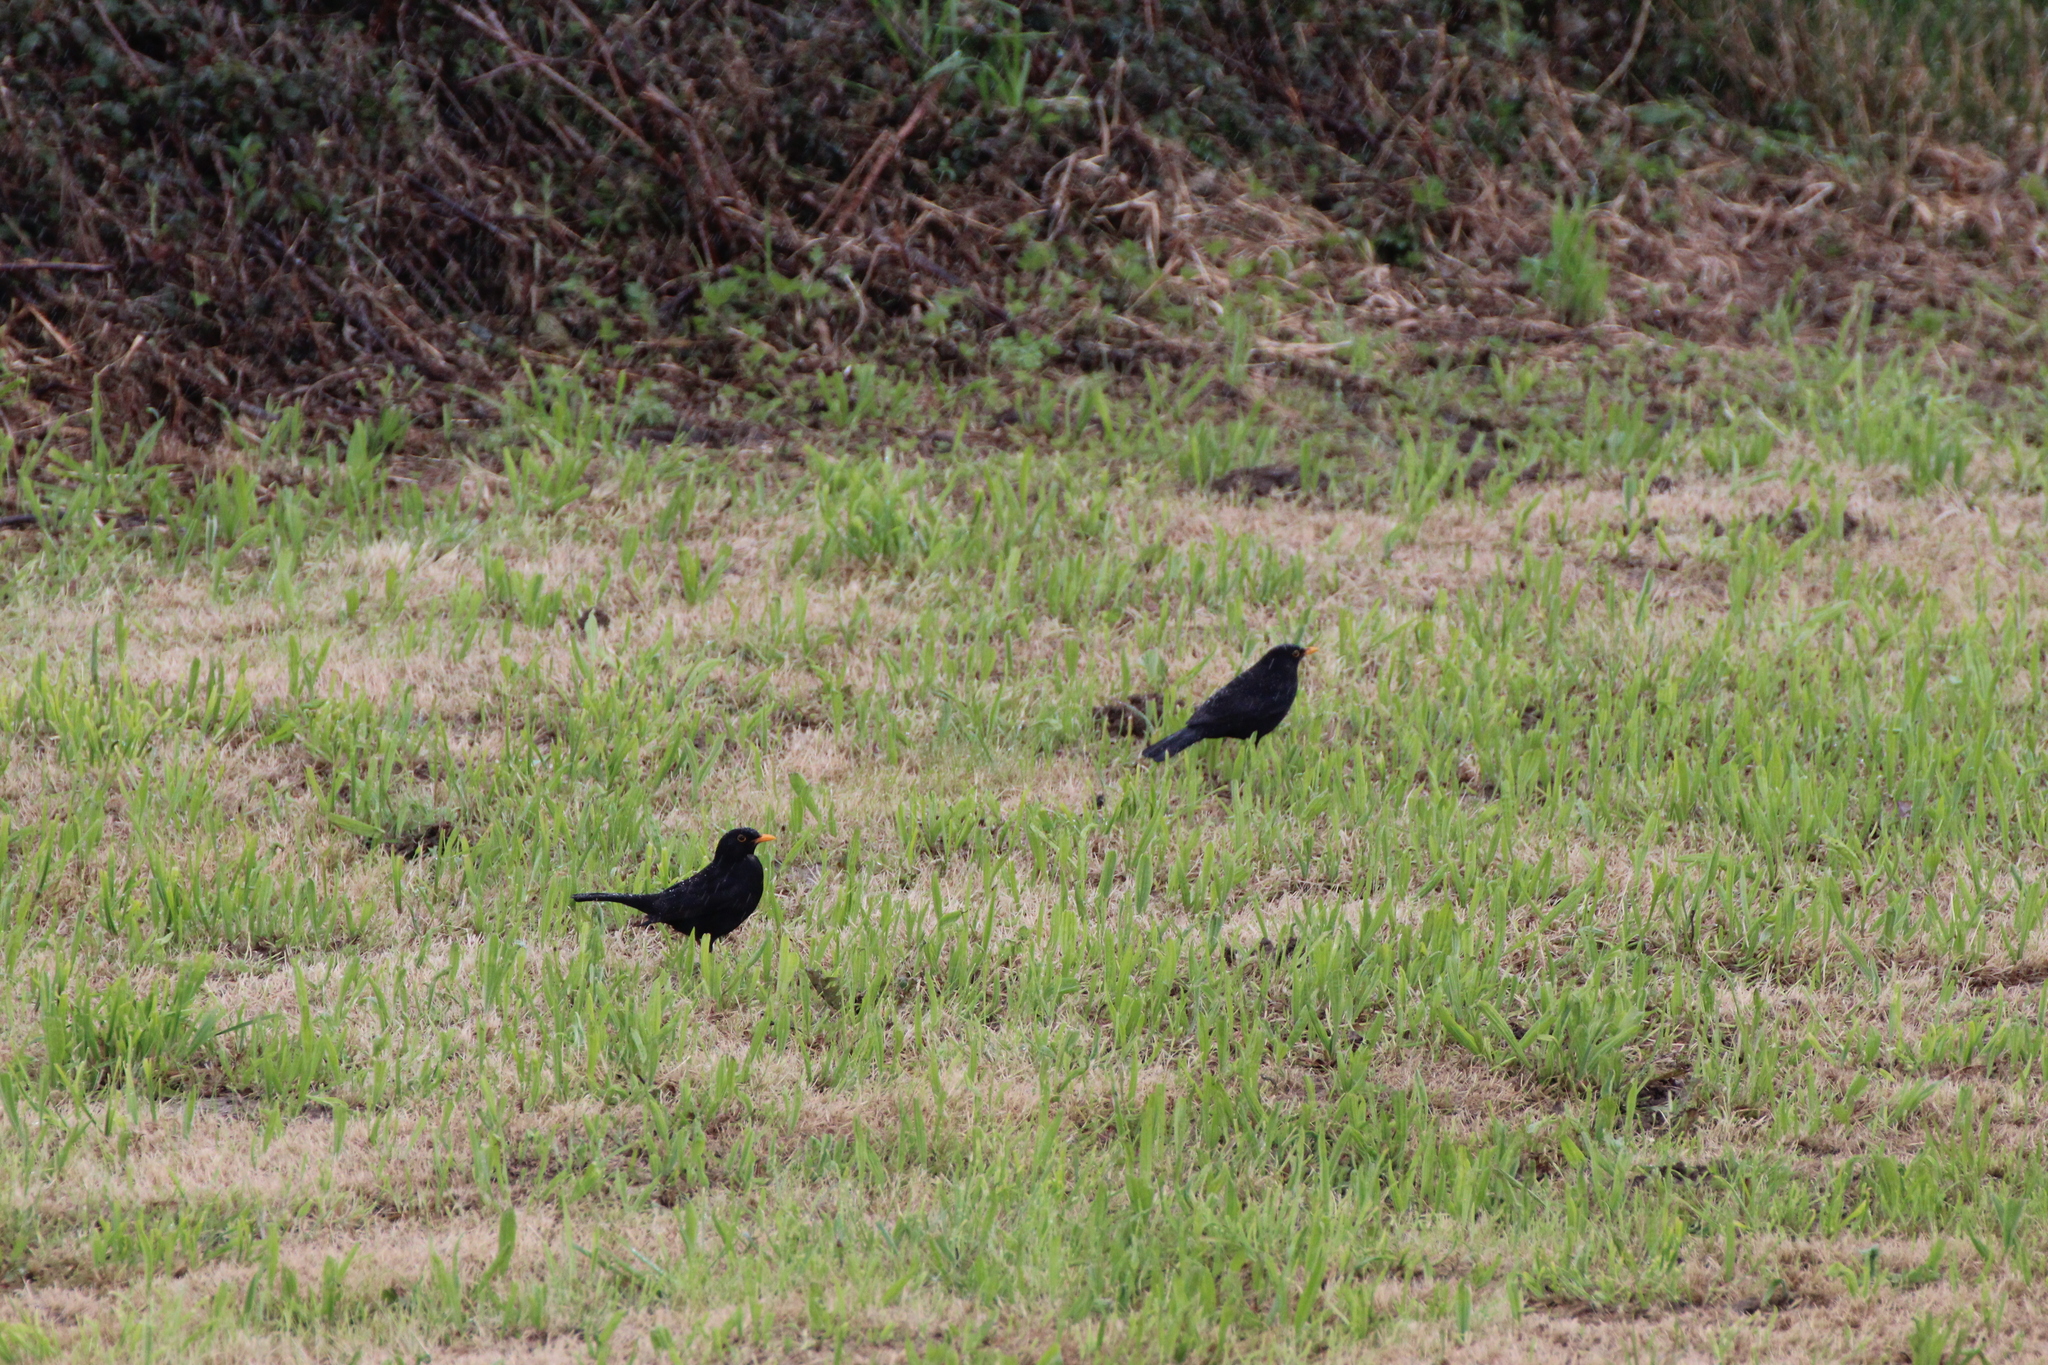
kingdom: Animalia
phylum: Chordata
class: Aves
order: Passeriformes
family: Turdidae
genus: Turdus
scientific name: Turdus merula
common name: Common blackbird
